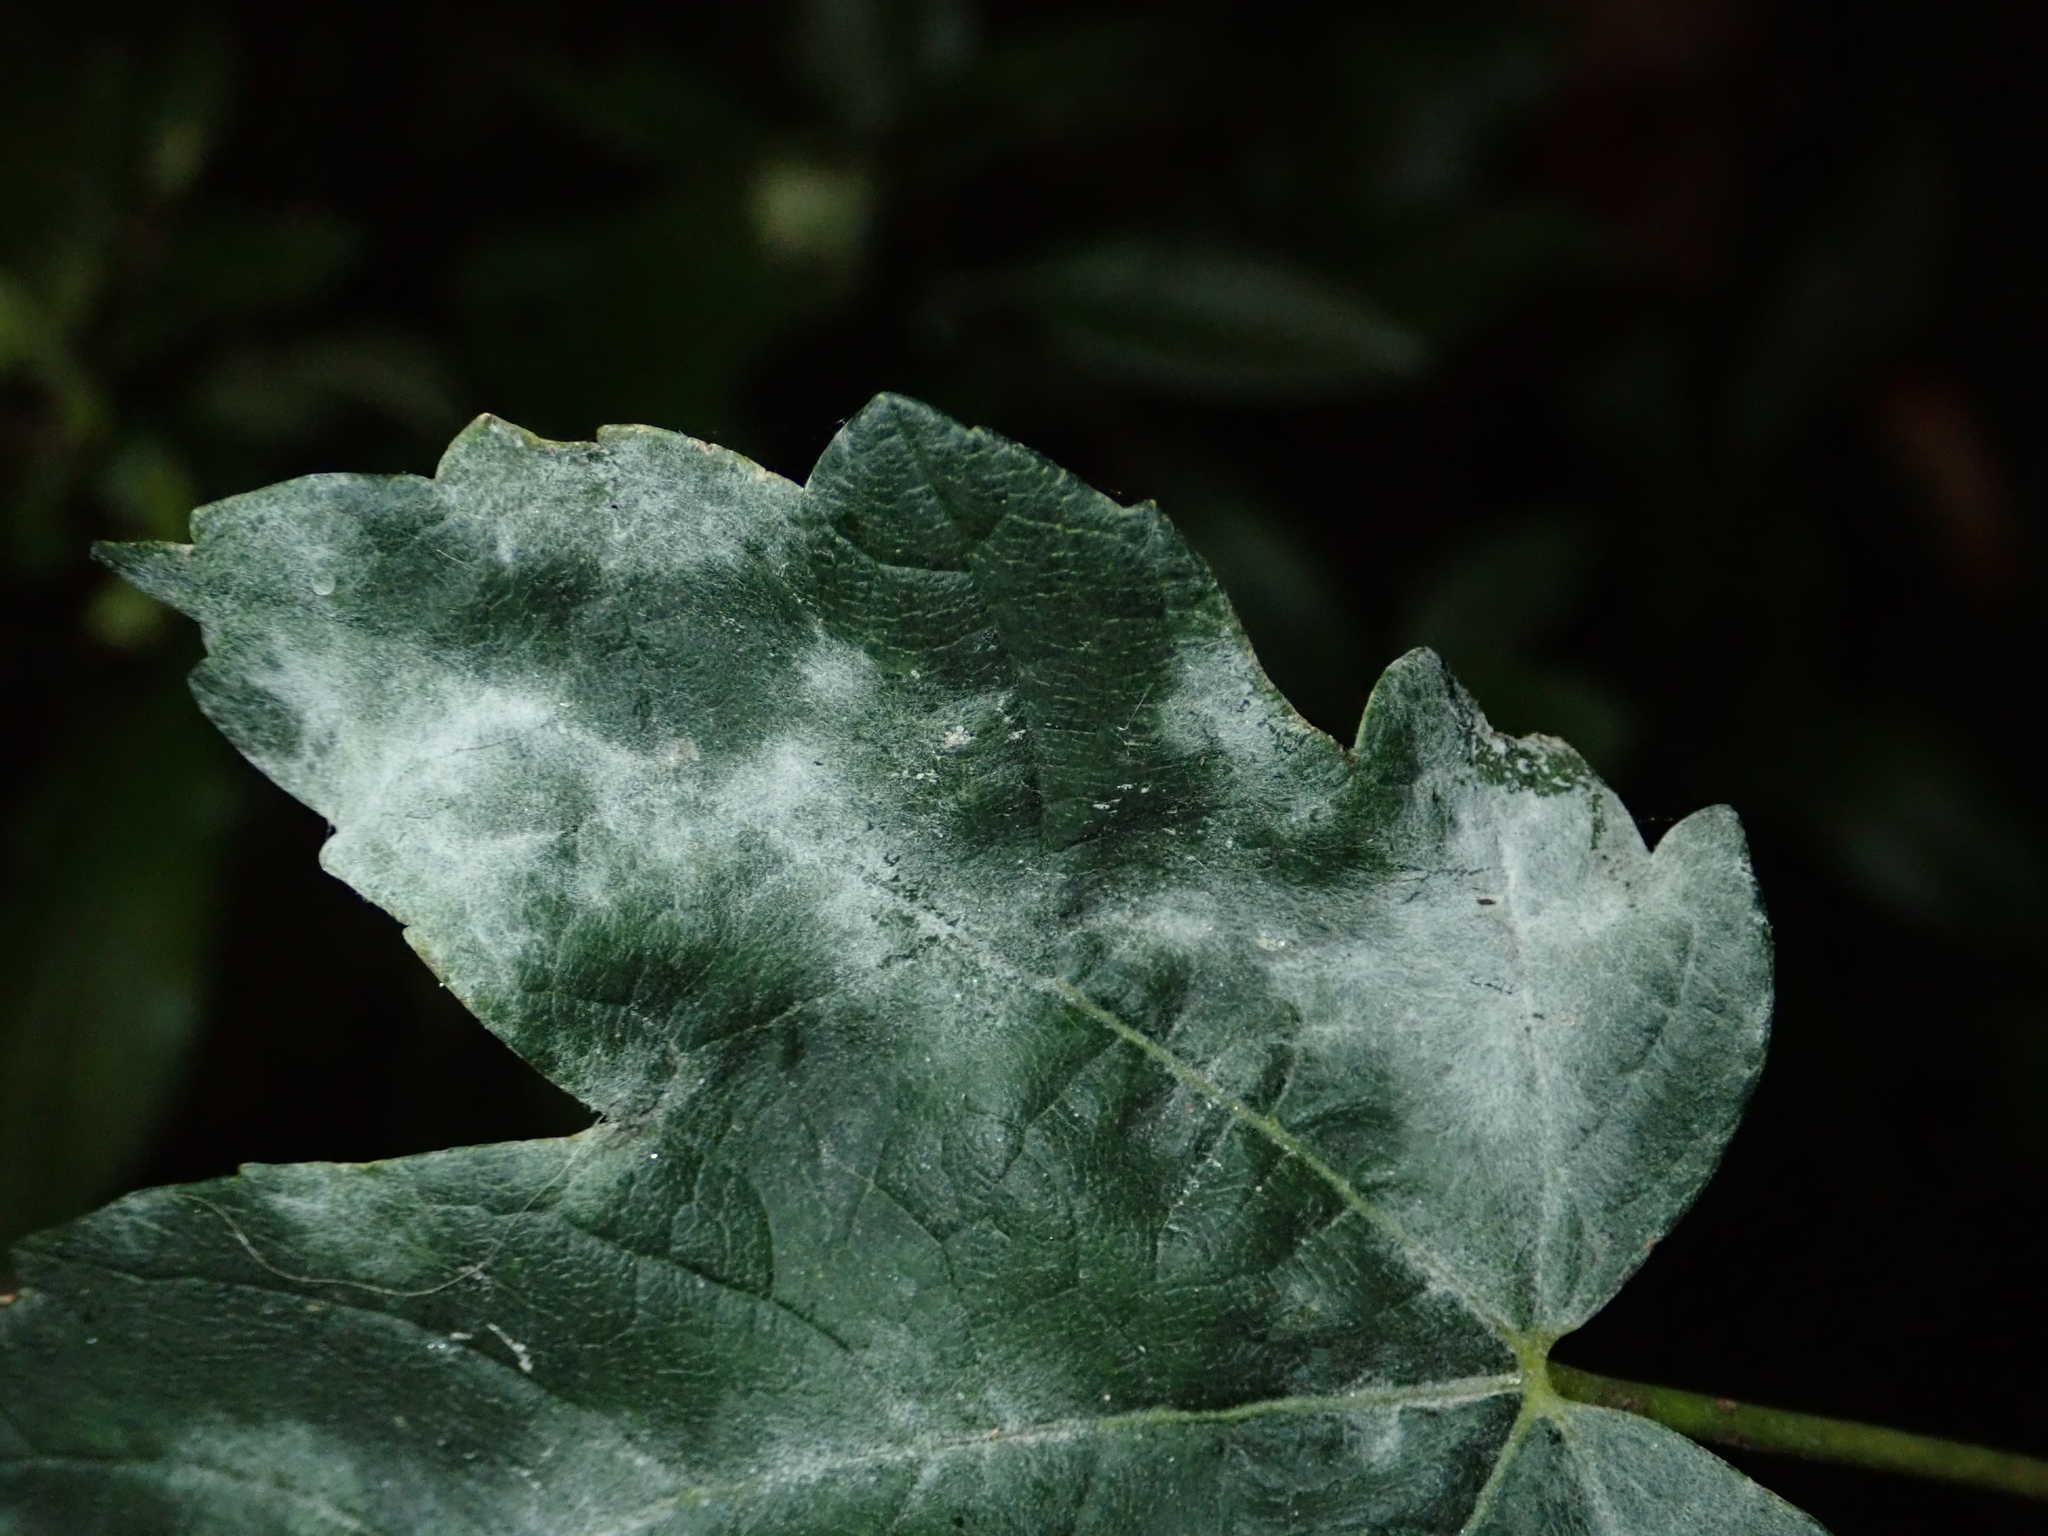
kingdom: Fungi
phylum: Ascomycota
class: Leotiomycetes
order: Helotiales
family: Erysiphaceae
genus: Sawadaea
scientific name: Sawadaea bicornis
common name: Maple mildew
